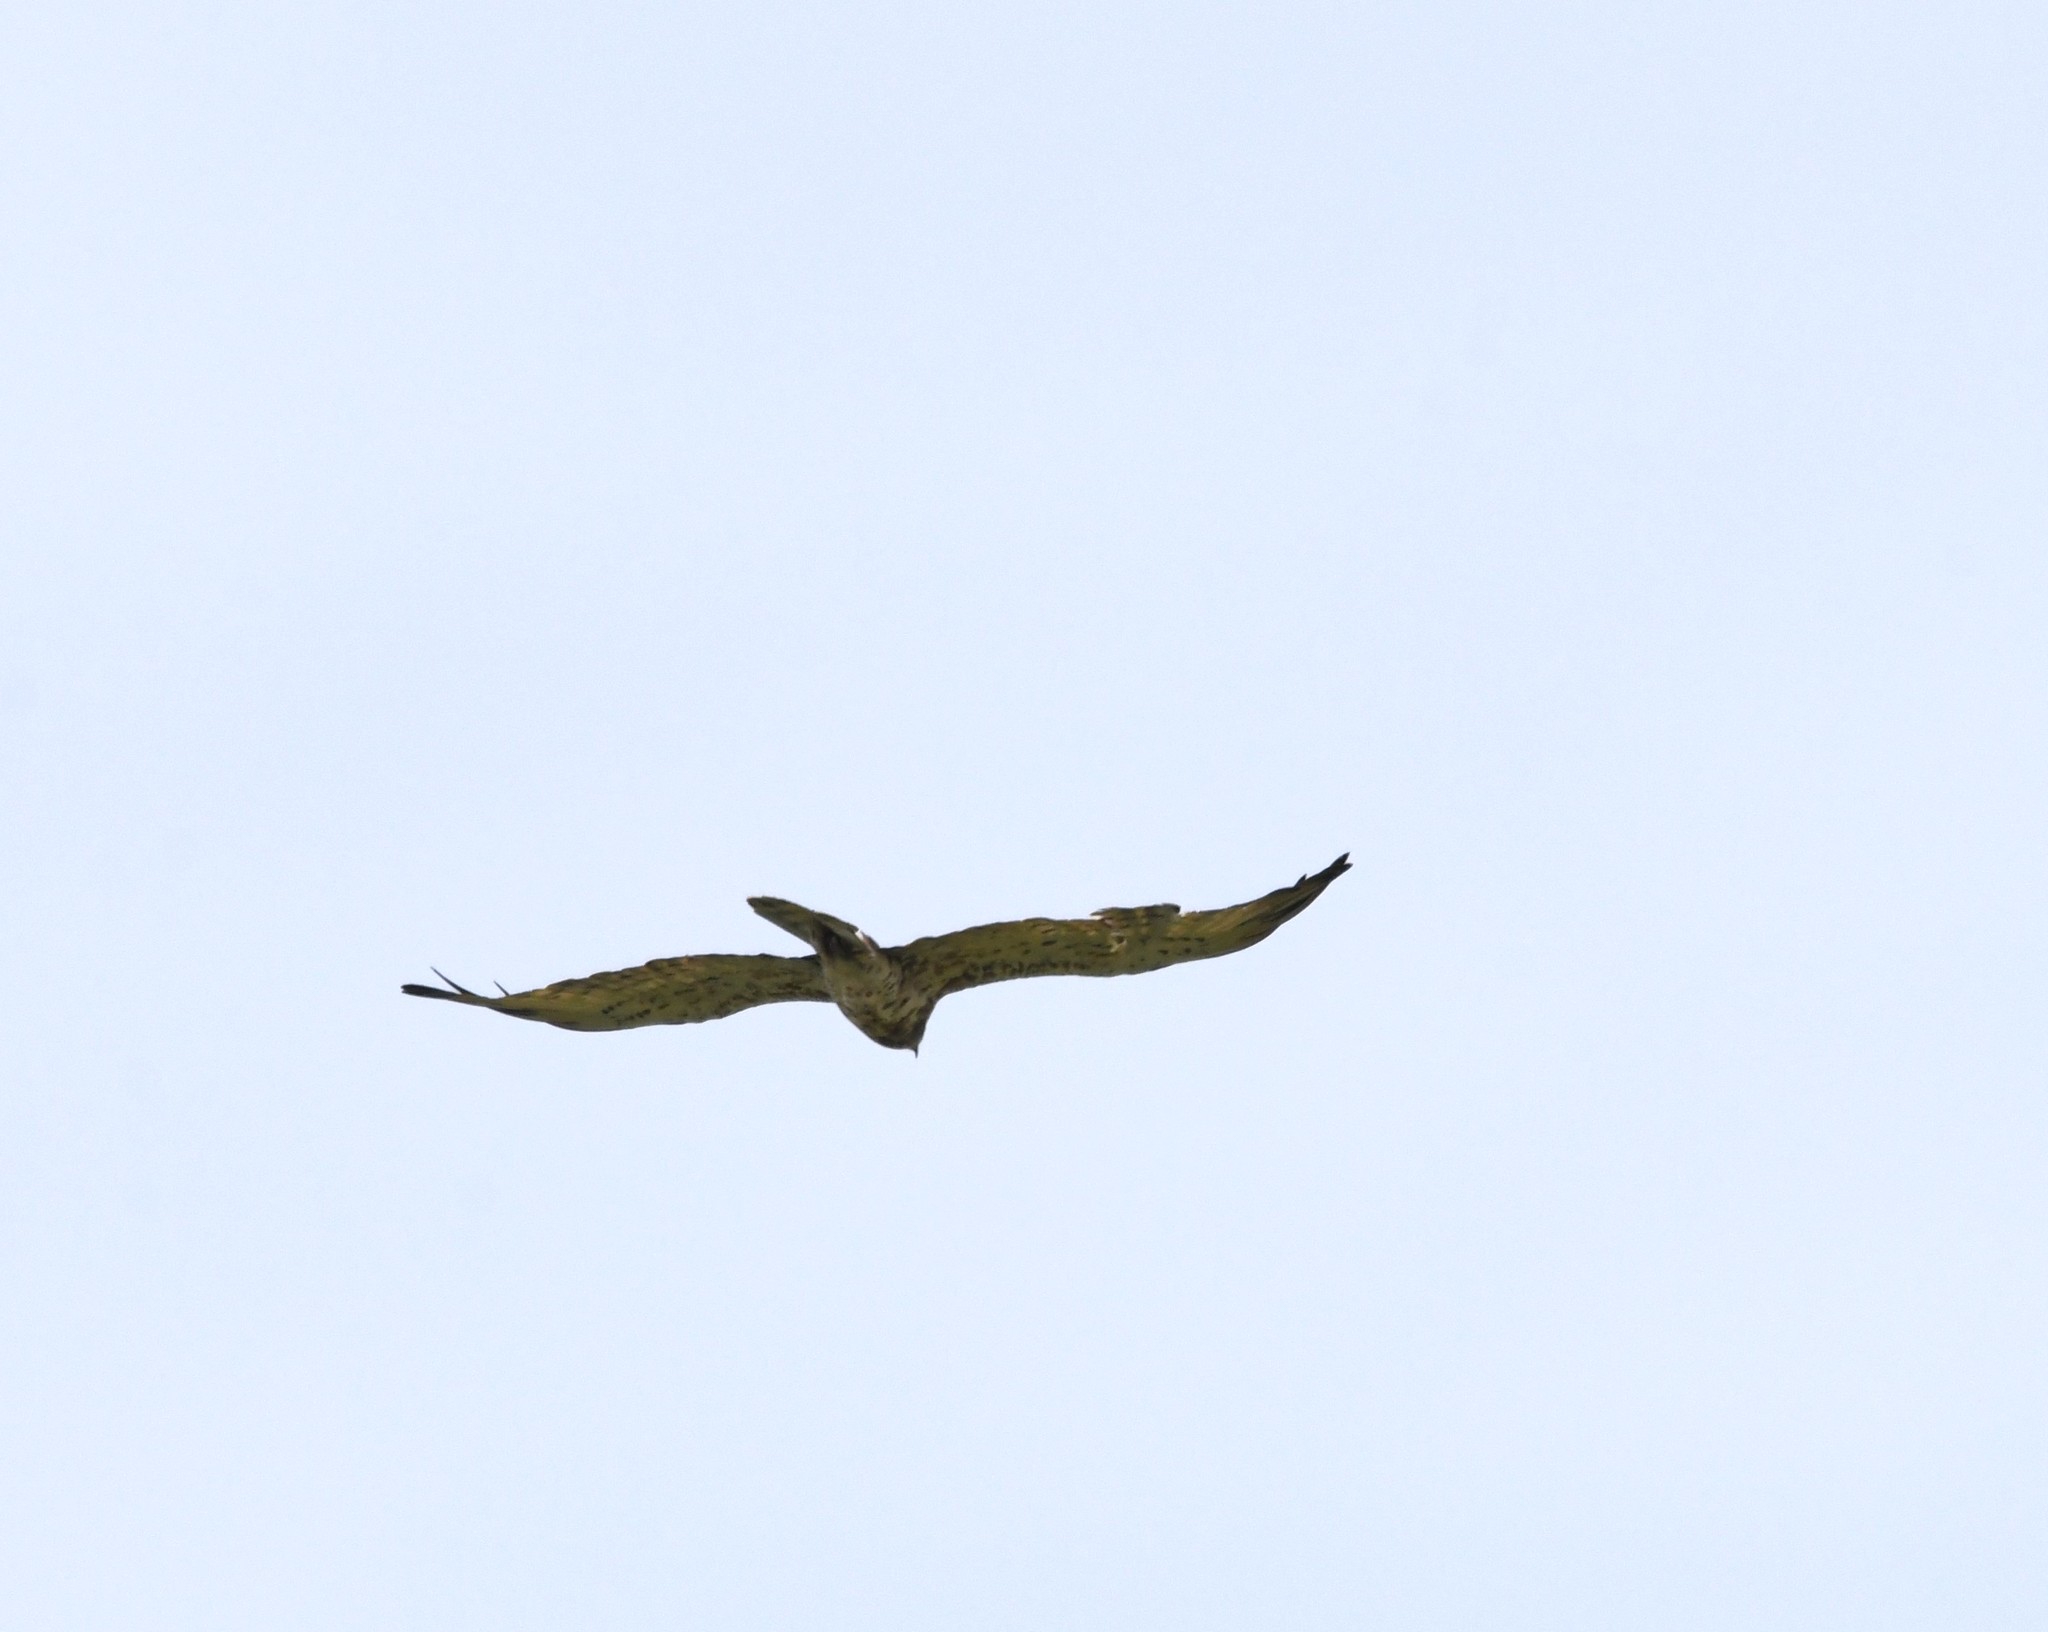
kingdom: Animalia
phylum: Chordata
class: Aves
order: Accipitriformes
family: Accipitridae
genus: Circaetus
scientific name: Circaetus gallicus
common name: Short-toed snake eagle
